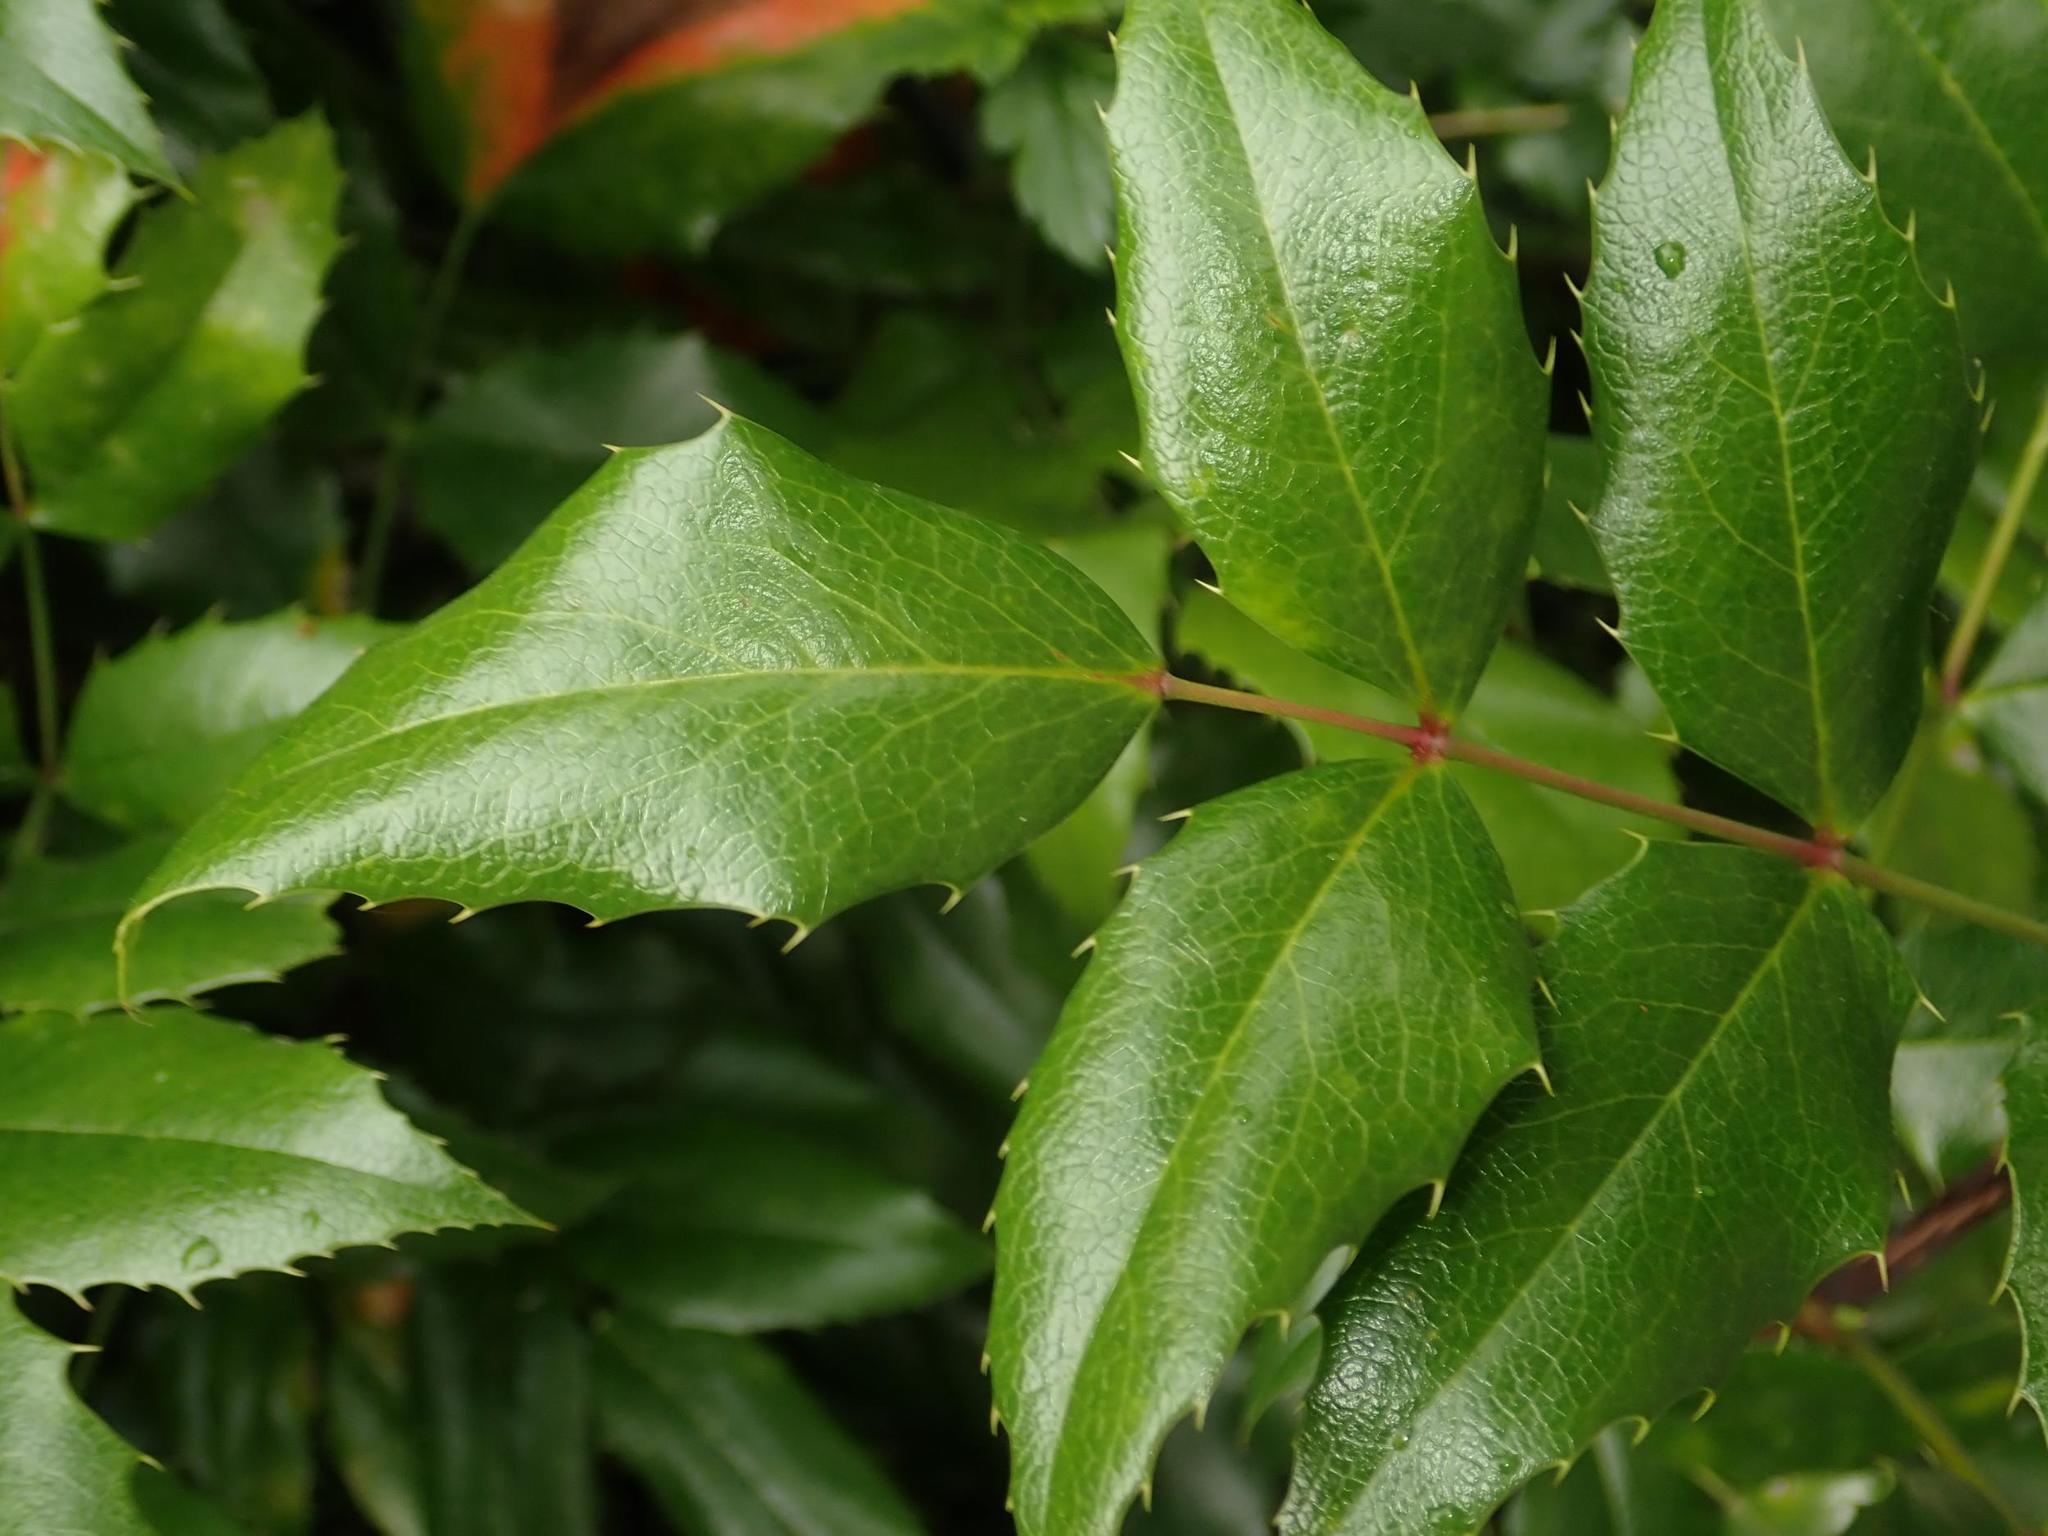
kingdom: Plantae
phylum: Tracheophyta
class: Magnoliopsida
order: Ranunculales
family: Berberidaceae
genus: Mahonia
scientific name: Mahonia aquifolium
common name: Oregon-grape
